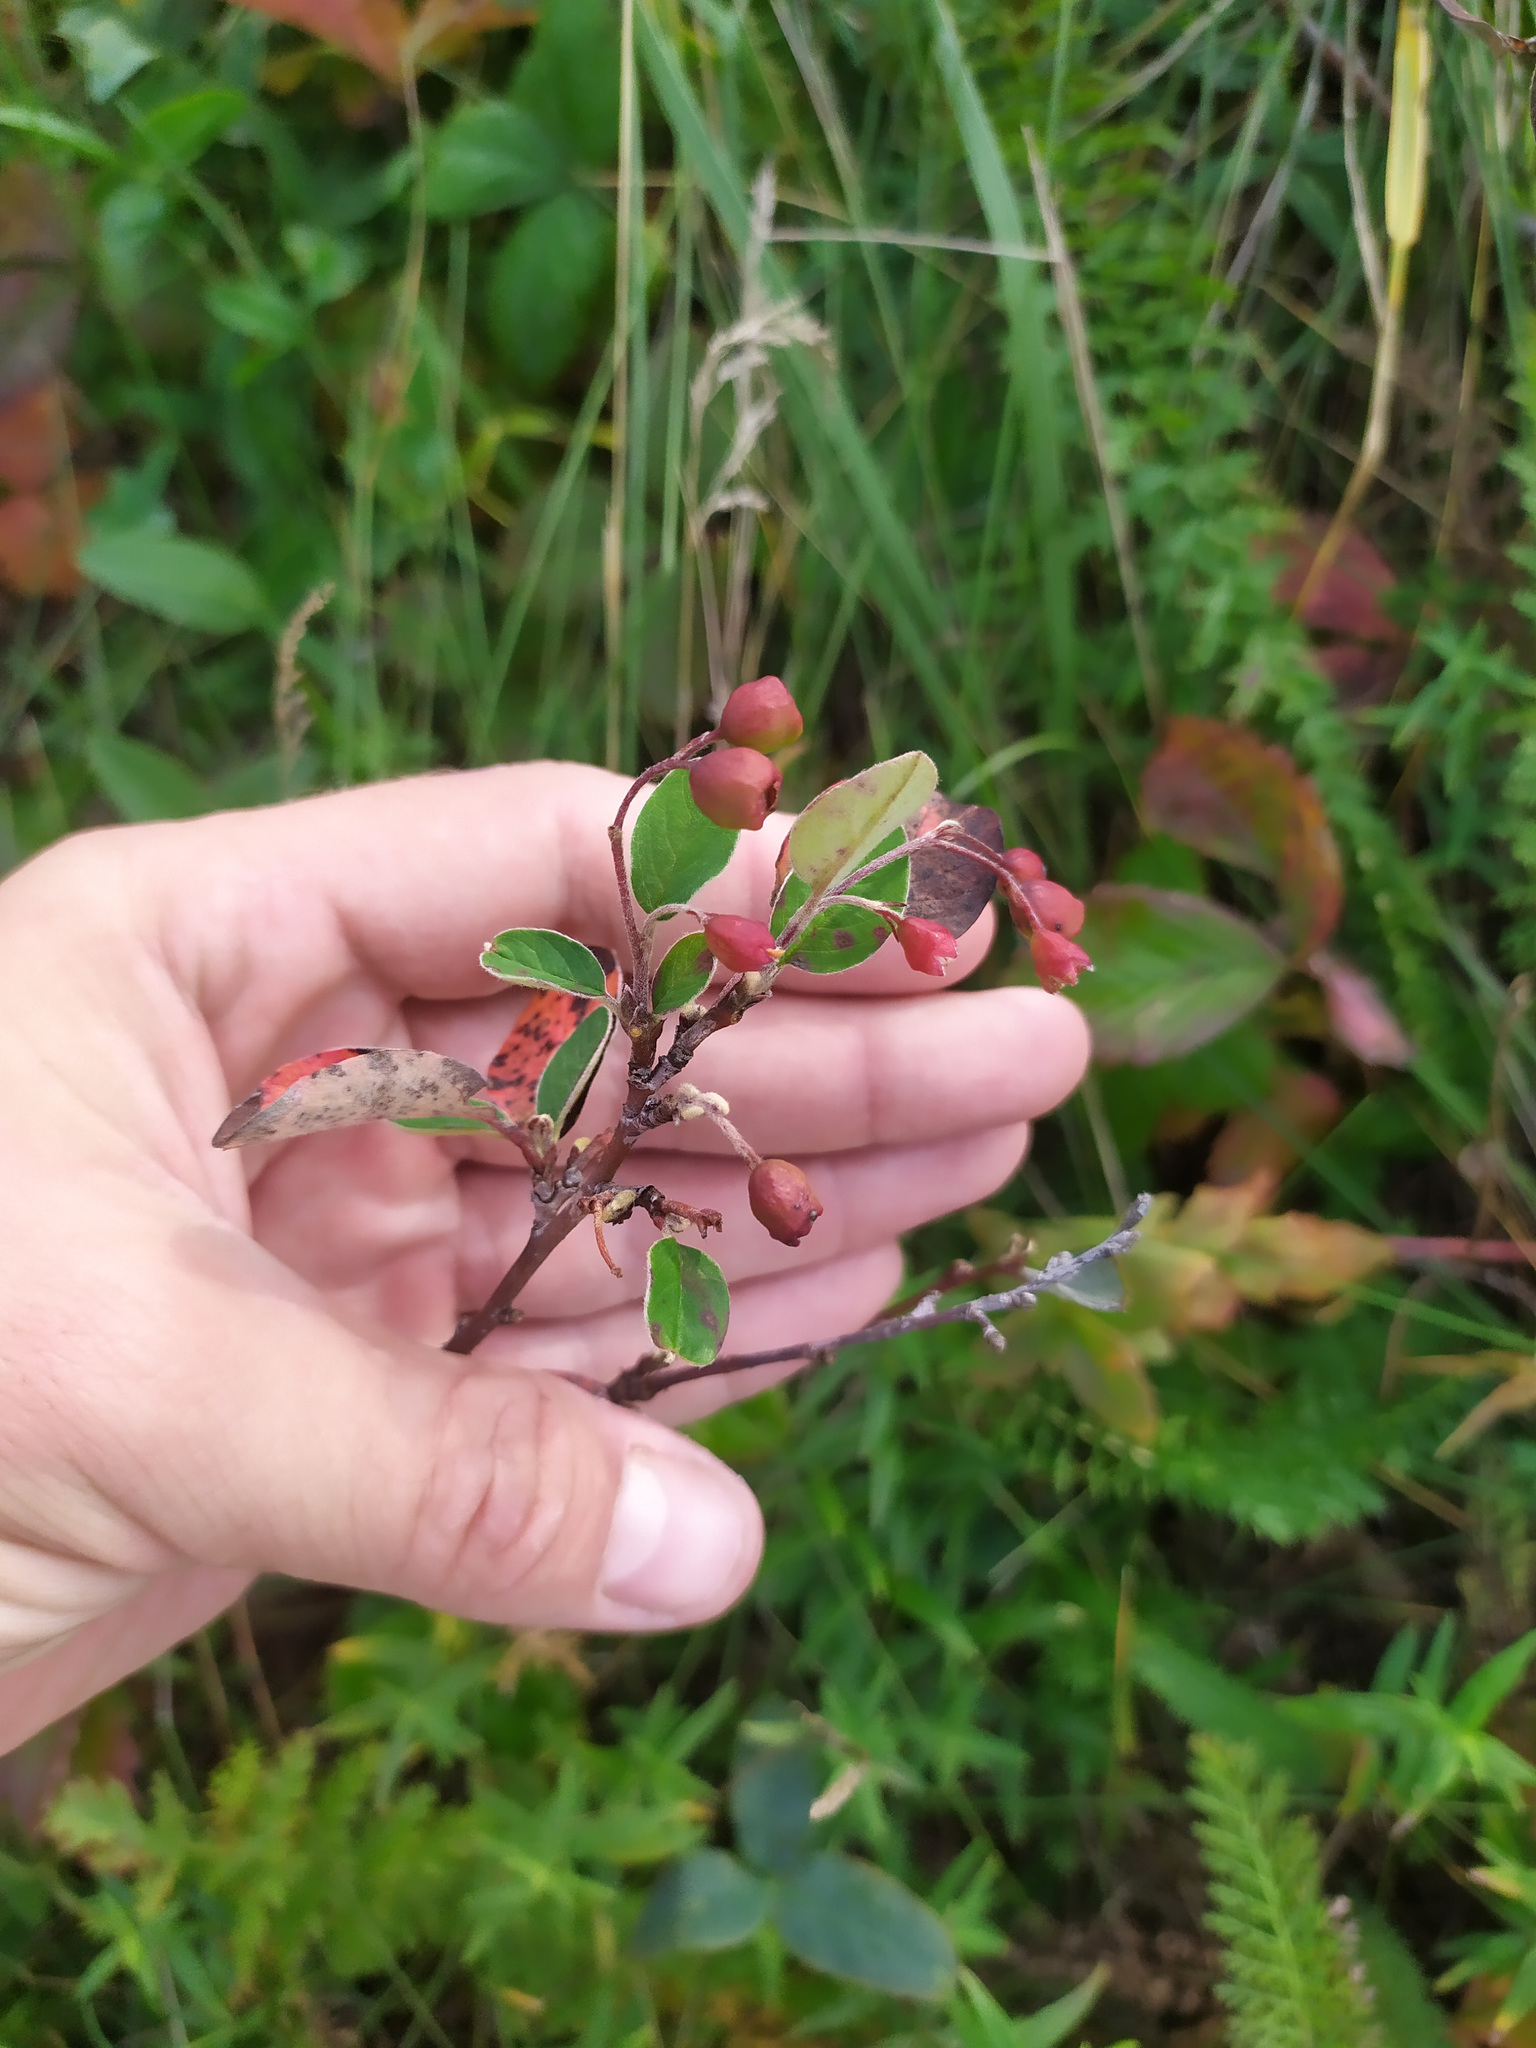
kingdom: Plantae
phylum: Tracheophyta
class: Magnoliopsida
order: Rosales
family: Rosaceae
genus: Cotoneaster
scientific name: Cotoneaster melanocarpus
